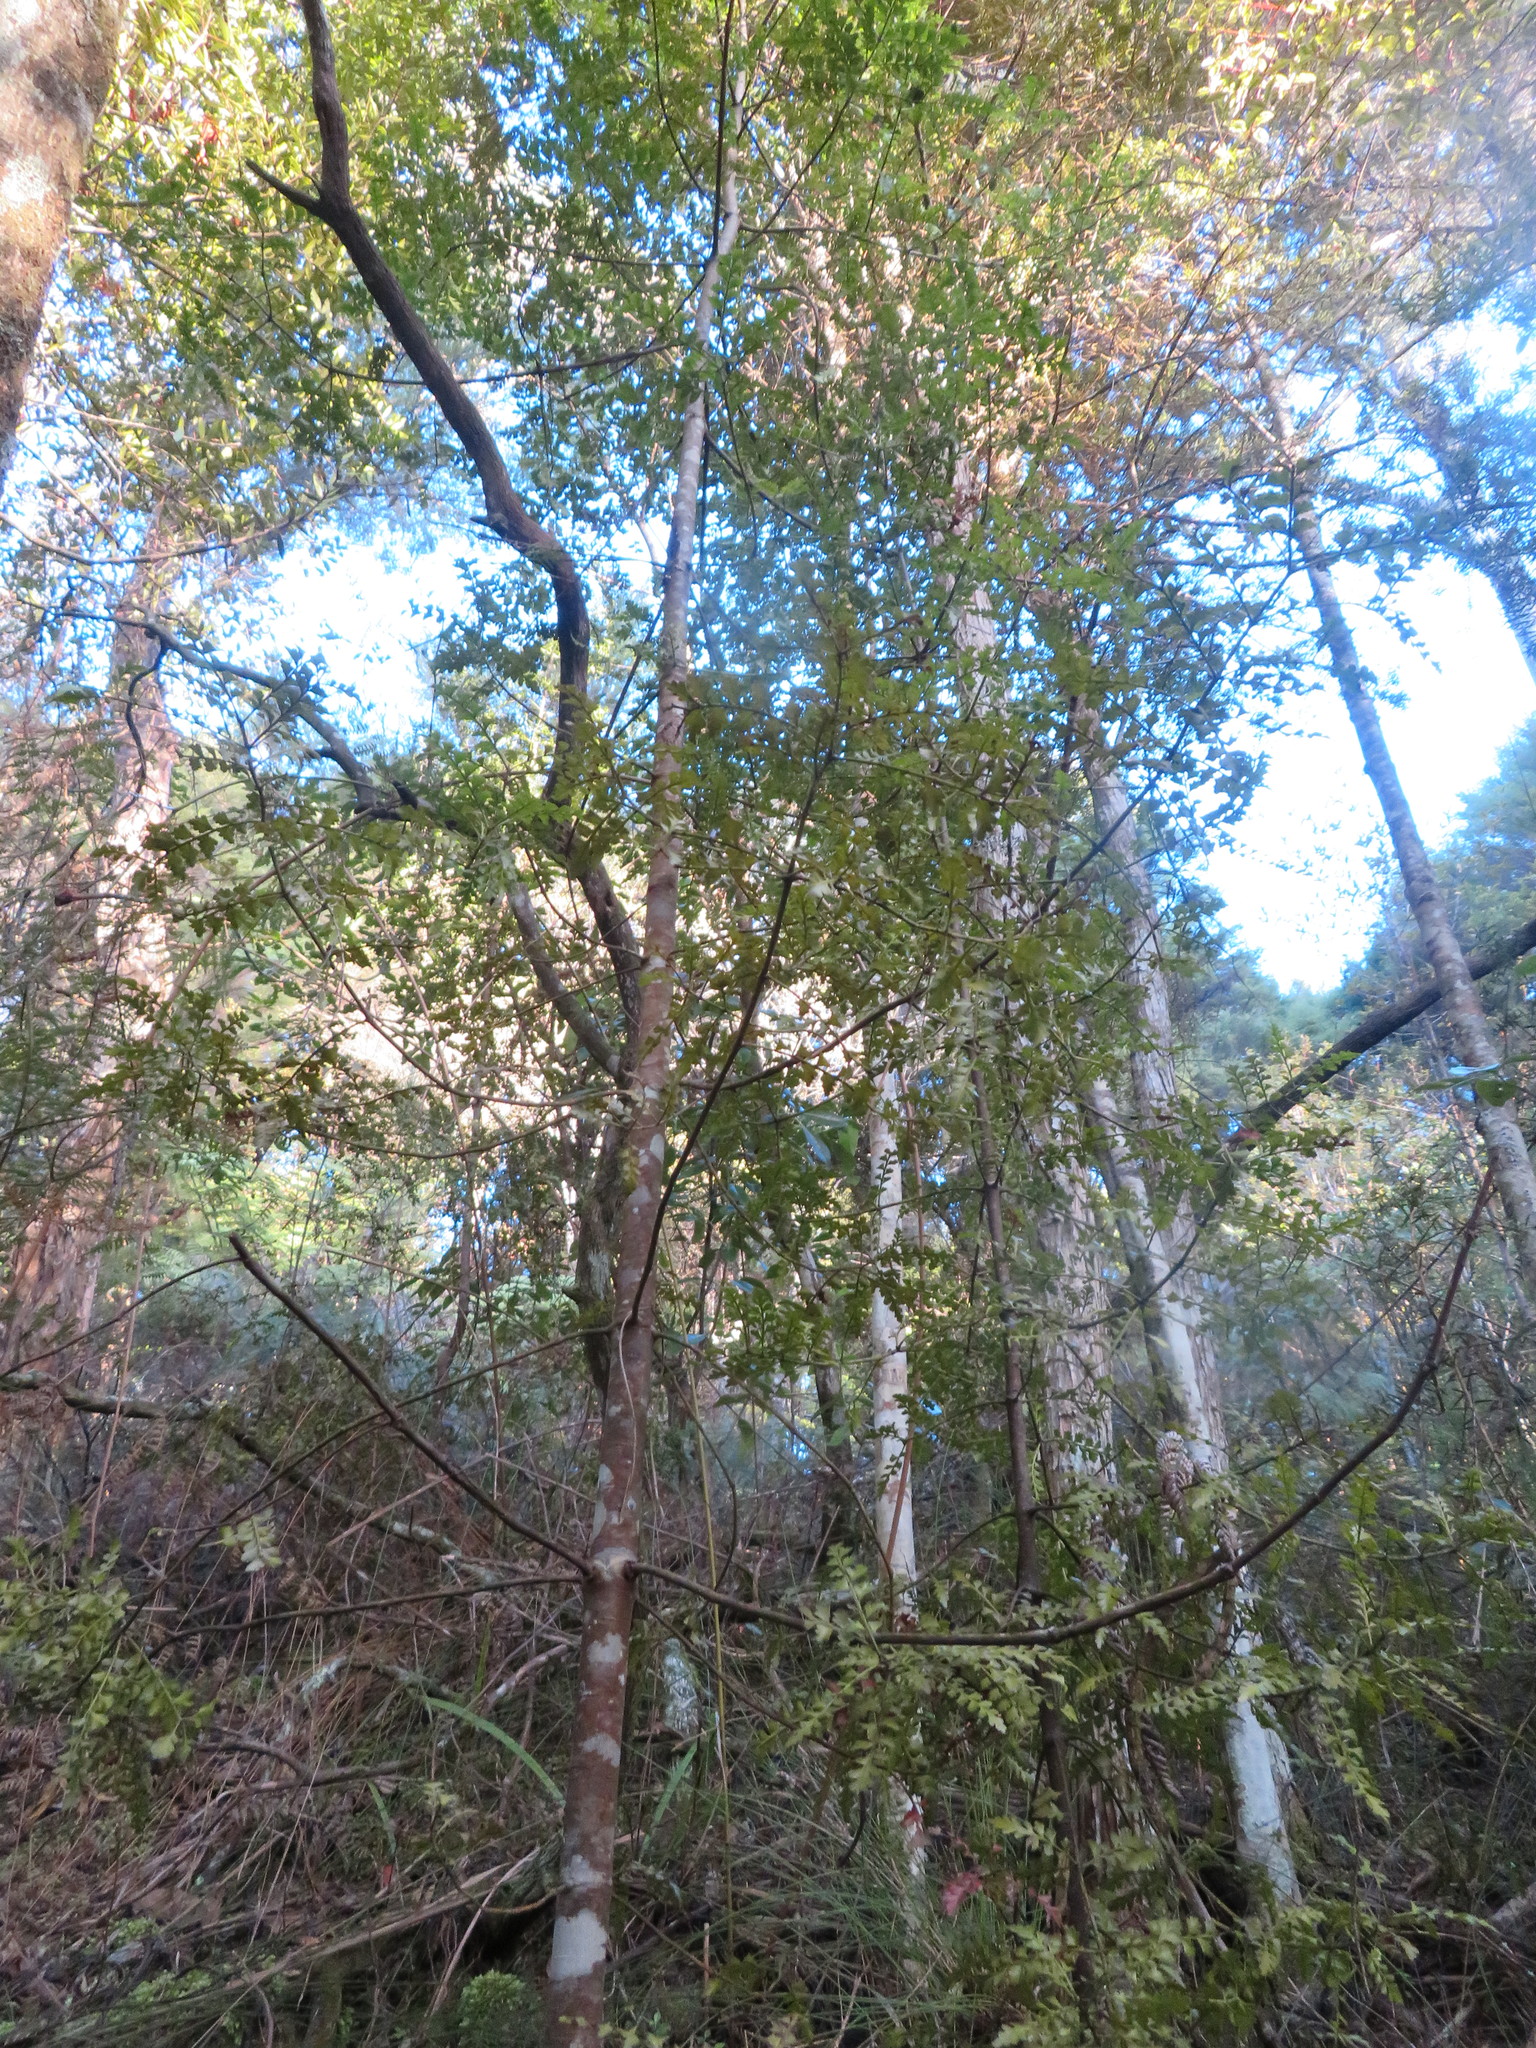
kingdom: Plantae
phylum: Tracheophyta
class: Pinopsida
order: Pinales
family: Phyllocladaceae
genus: Phyllocladus
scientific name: Phyllocladus trichomanoides
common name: Celery pine
